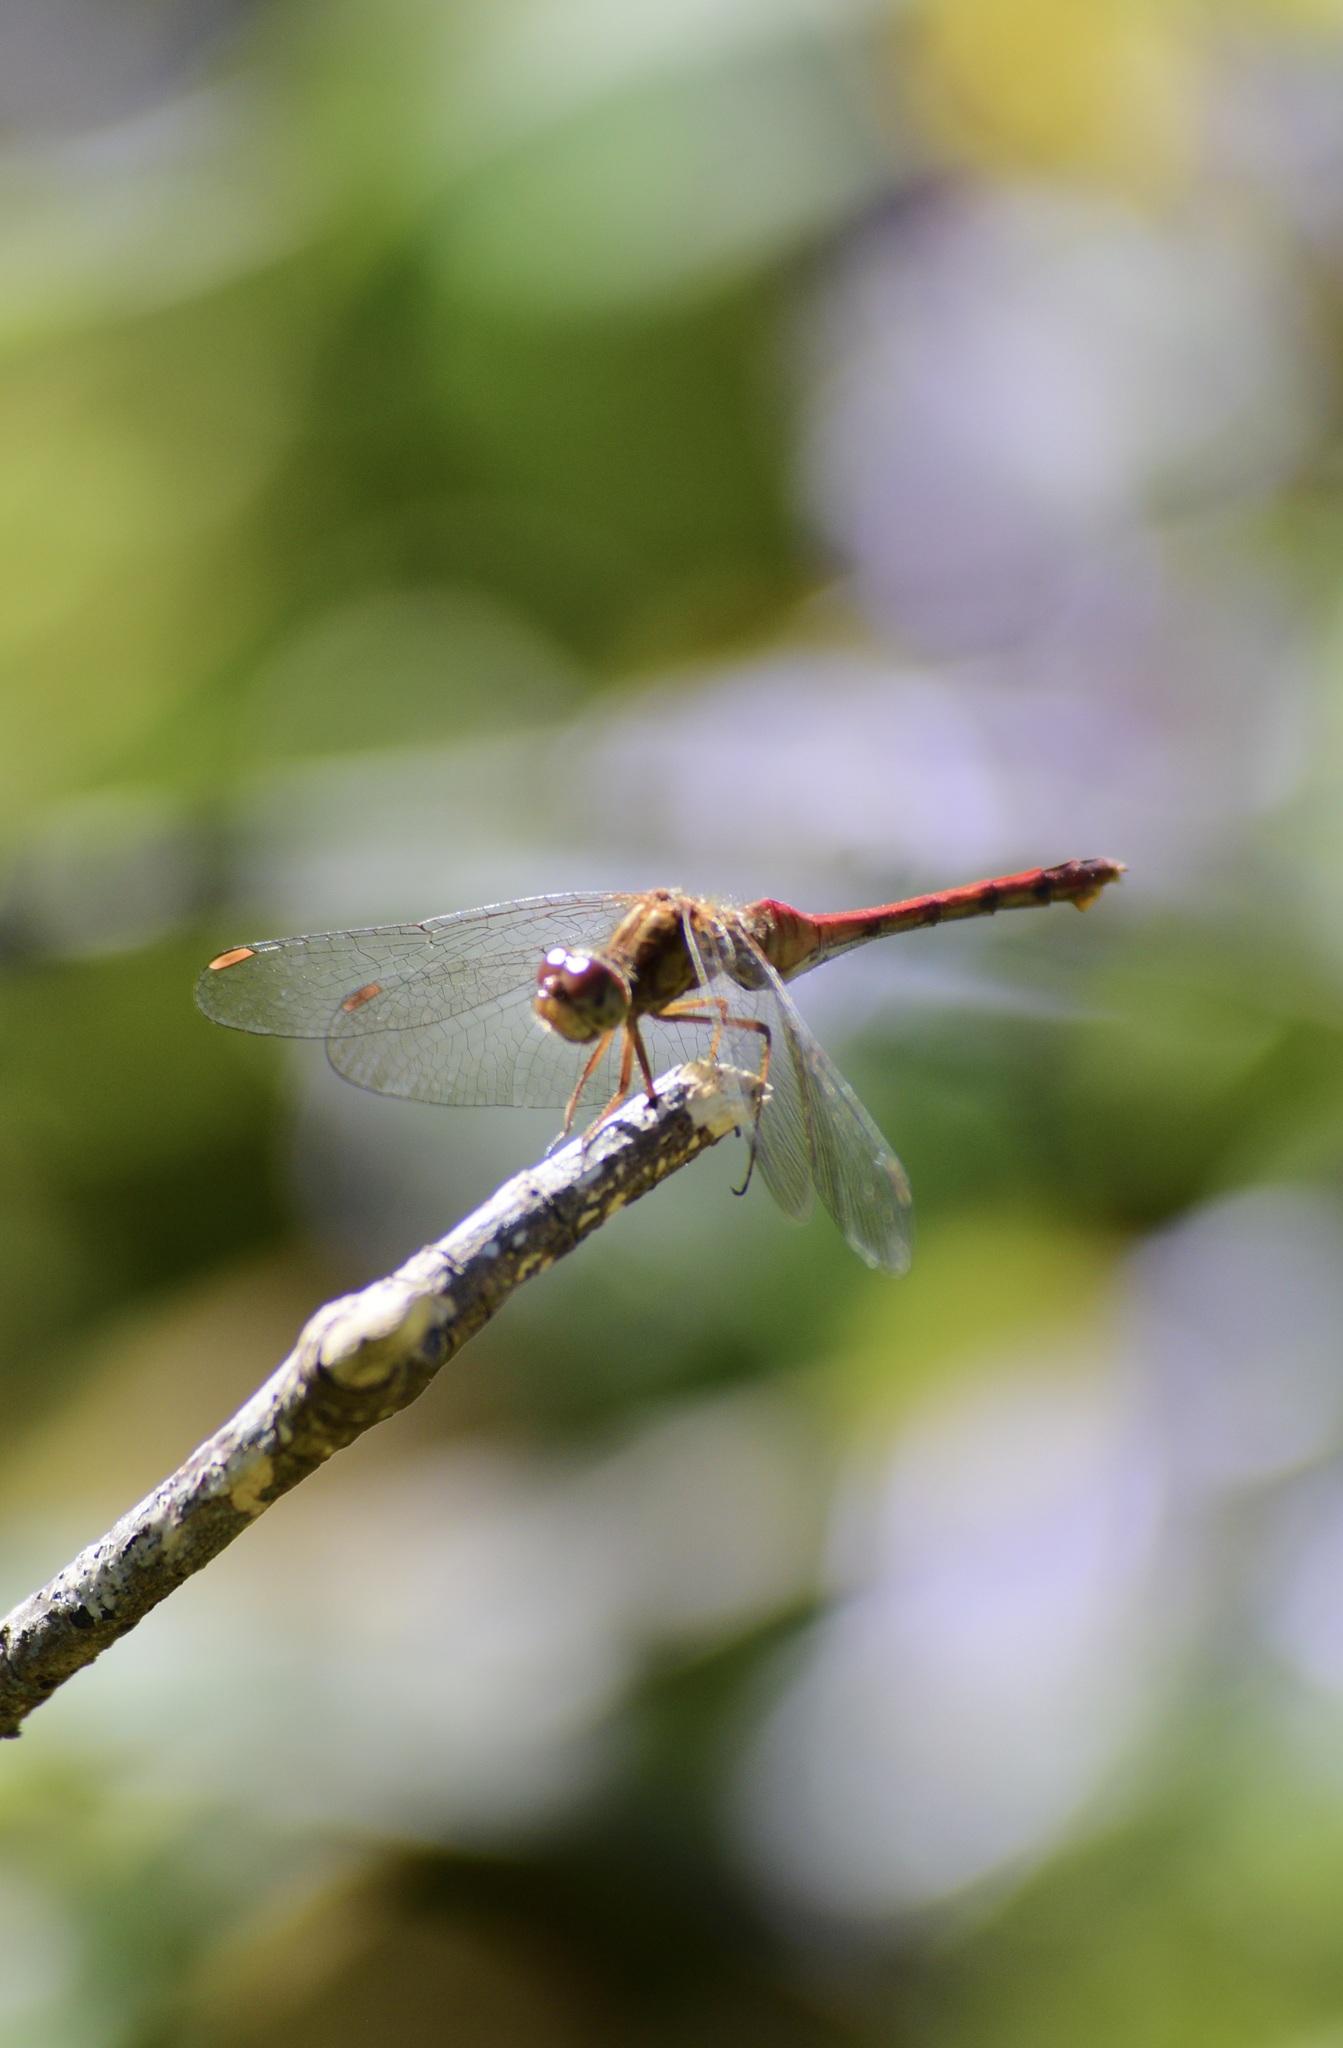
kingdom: Animalia
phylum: Arthropoda
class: Insecta
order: Odonata
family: Libellulidae
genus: Sympetrum
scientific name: Sympetrum vicinum
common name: Autumn meadowhawk
